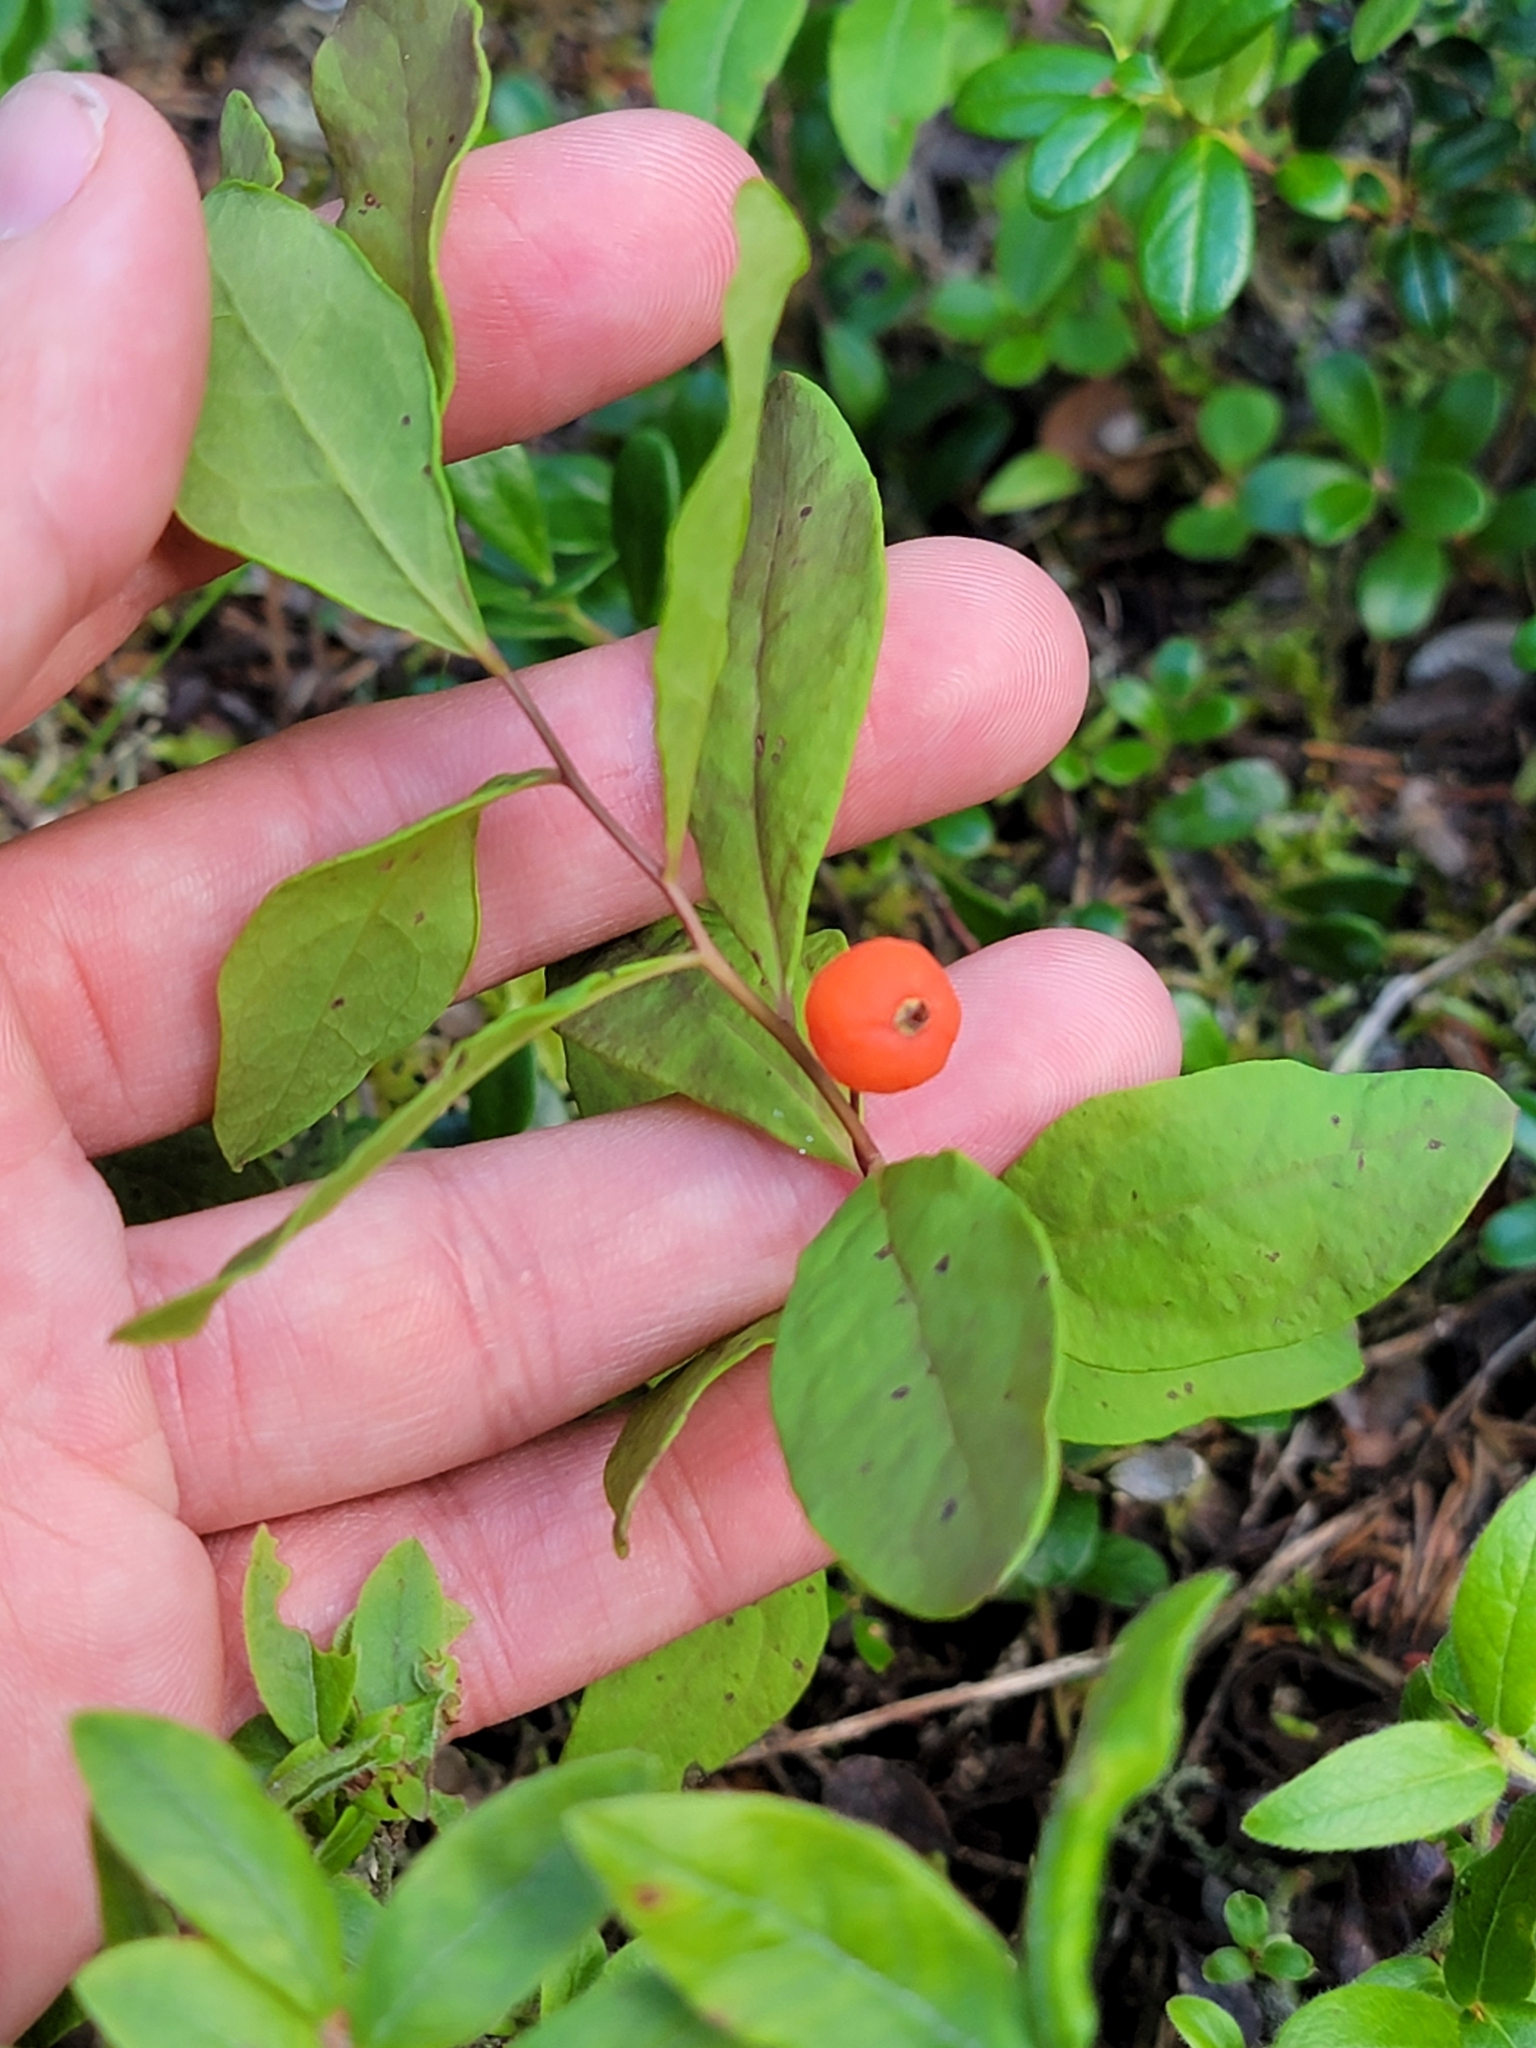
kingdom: Plantae
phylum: Tracheophyta
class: Magnoliopsida
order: Santalales
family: Comandraceae
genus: Geocaulon
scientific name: Geocaulon lividum
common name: Earthberry
